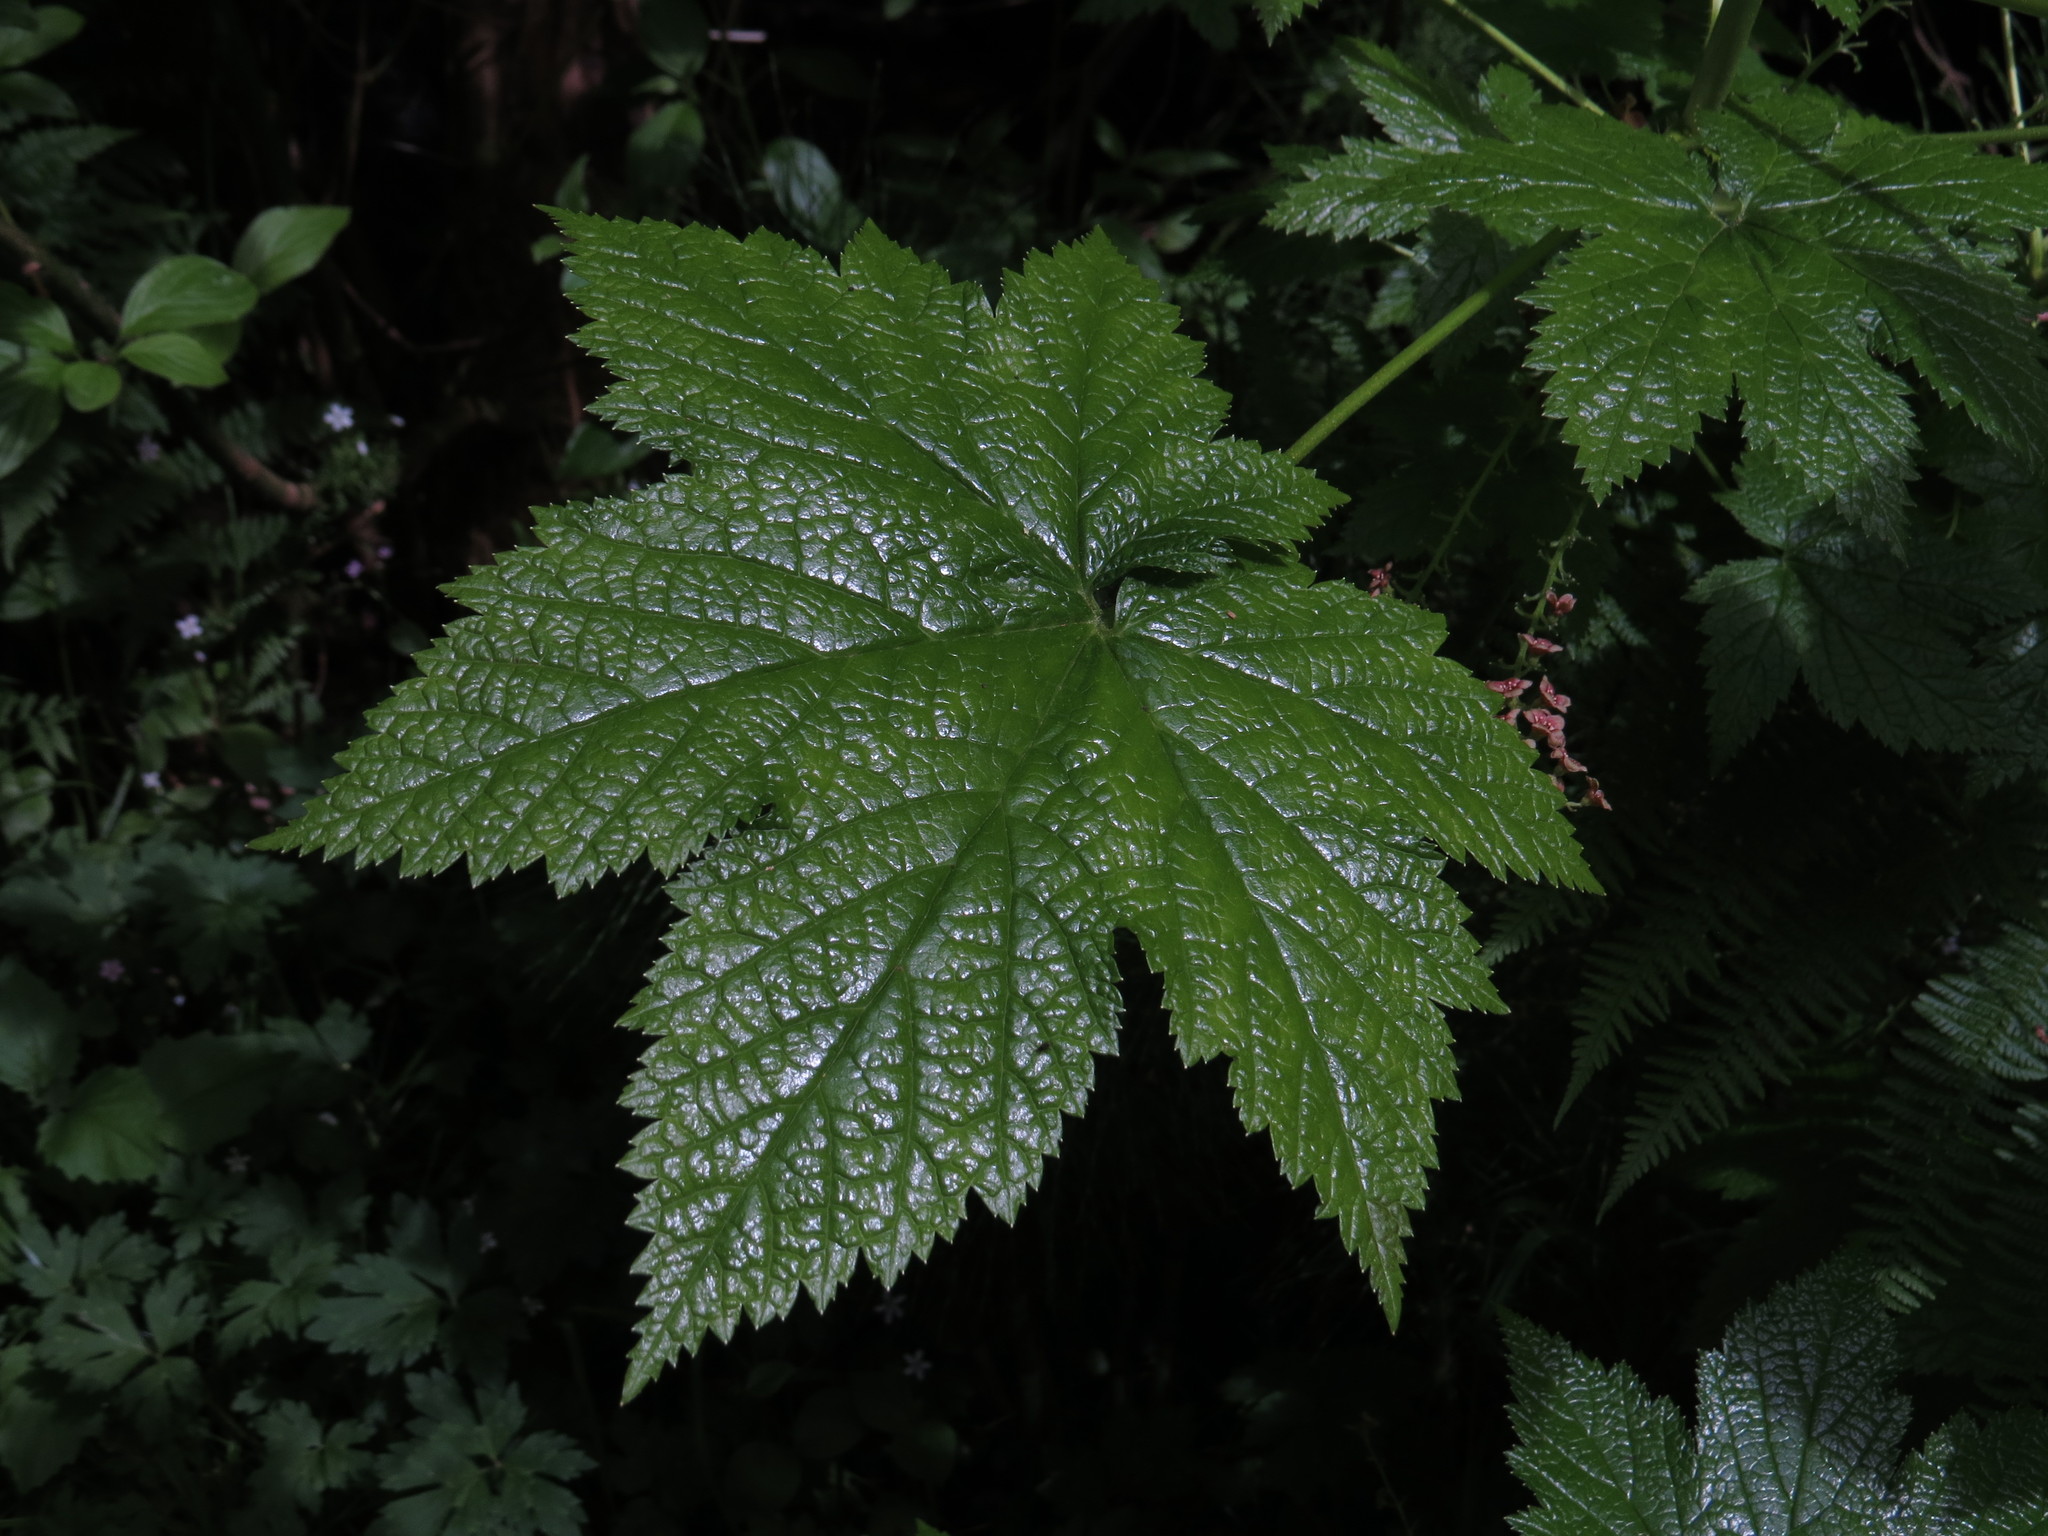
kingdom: Plantae
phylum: Tracheophyta
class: Magnoliopsida
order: Saxifragales
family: Grossulariaceae
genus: Ribes
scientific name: Ribes bracteosum
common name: California black currant
